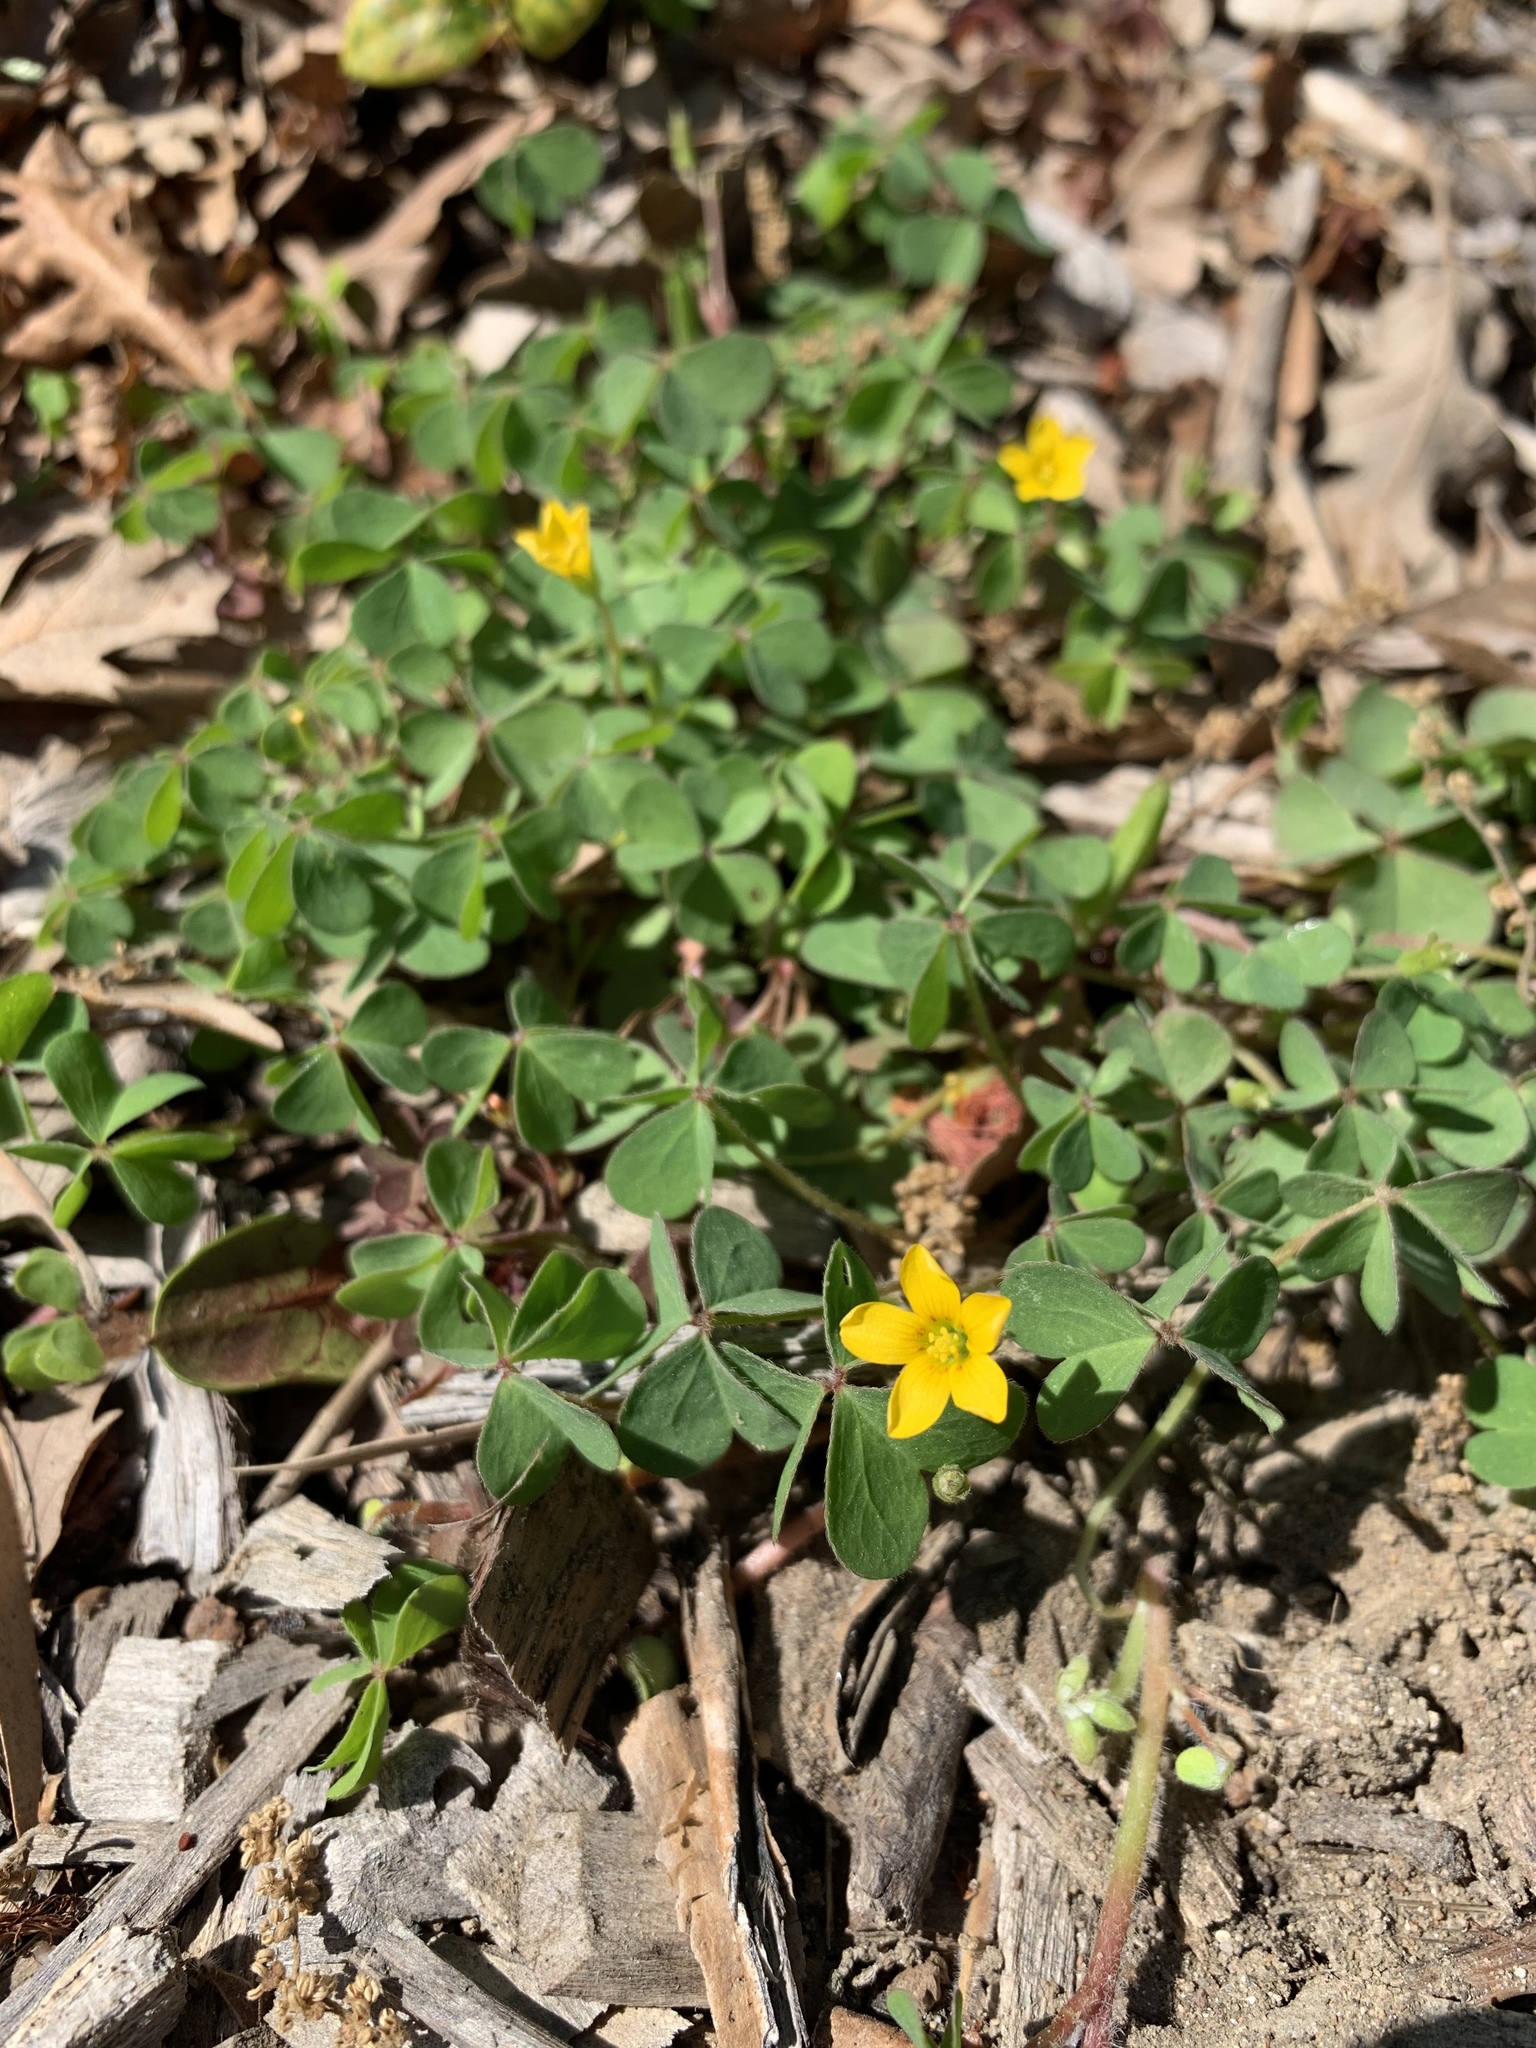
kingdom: Plantae
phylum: Tracheophyta
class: Magnoliopsida
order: Oxalidales
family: Oxalidaceae
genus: Oxalis
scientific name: Oxalis corniculata
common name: Procumbent yellow-sorrel
